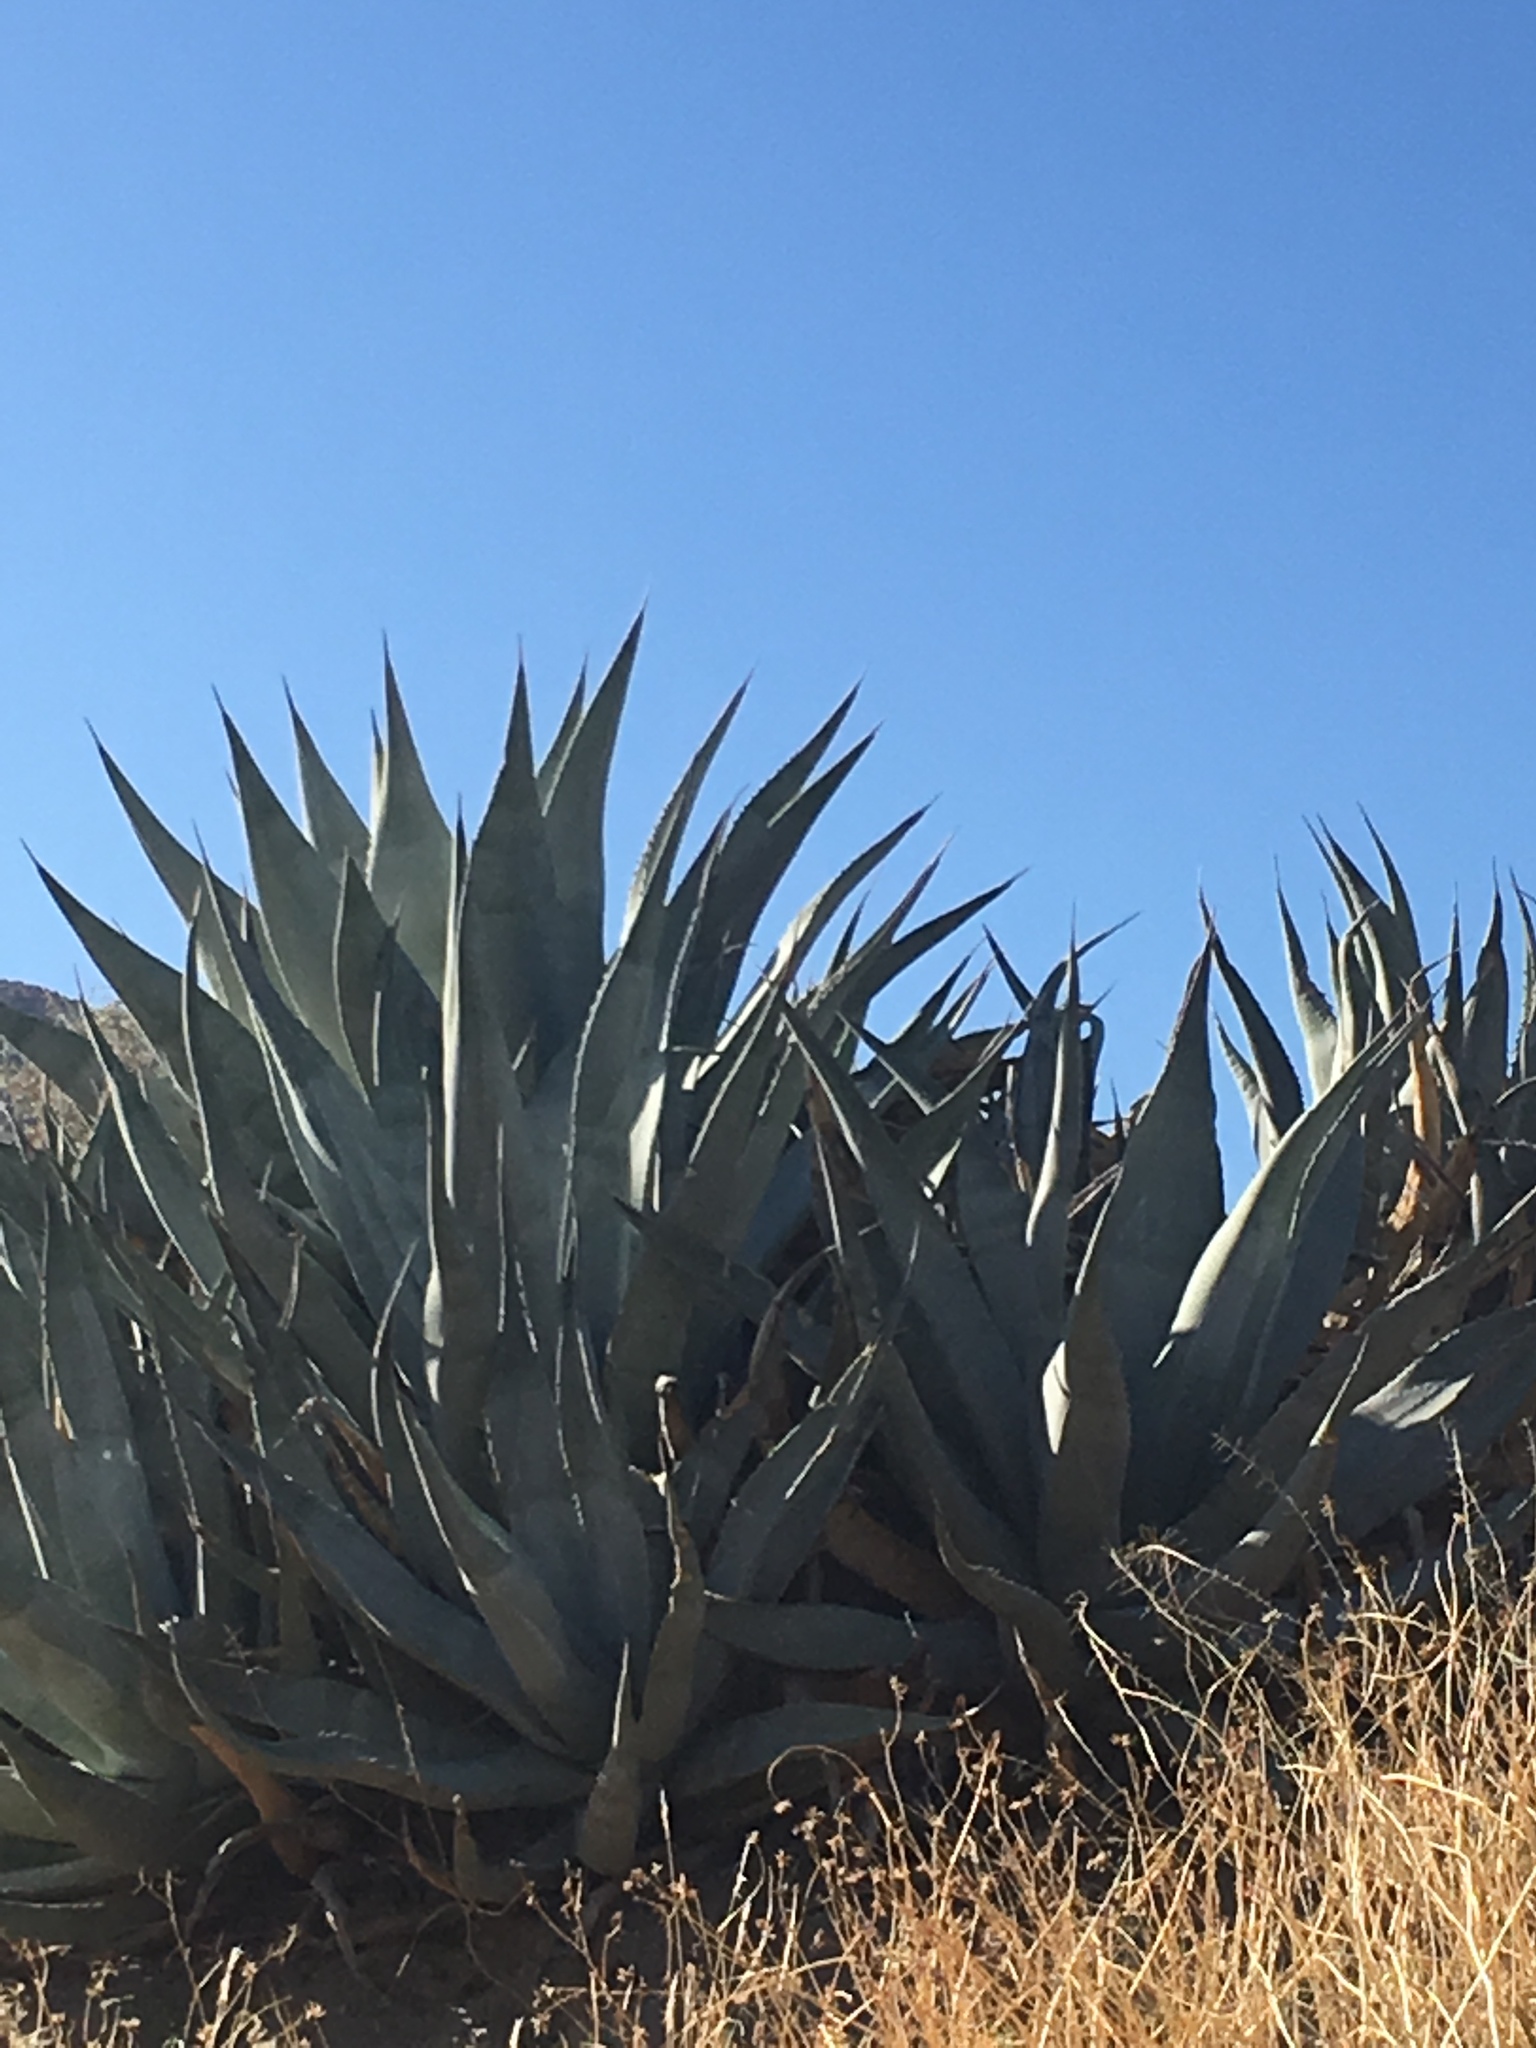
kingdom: Plantae
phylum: Tracheophyta
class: Liliopsida
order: Asparagales
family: Asparagaceae
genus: Agave
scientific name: Agave deserti
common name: Desert agave
